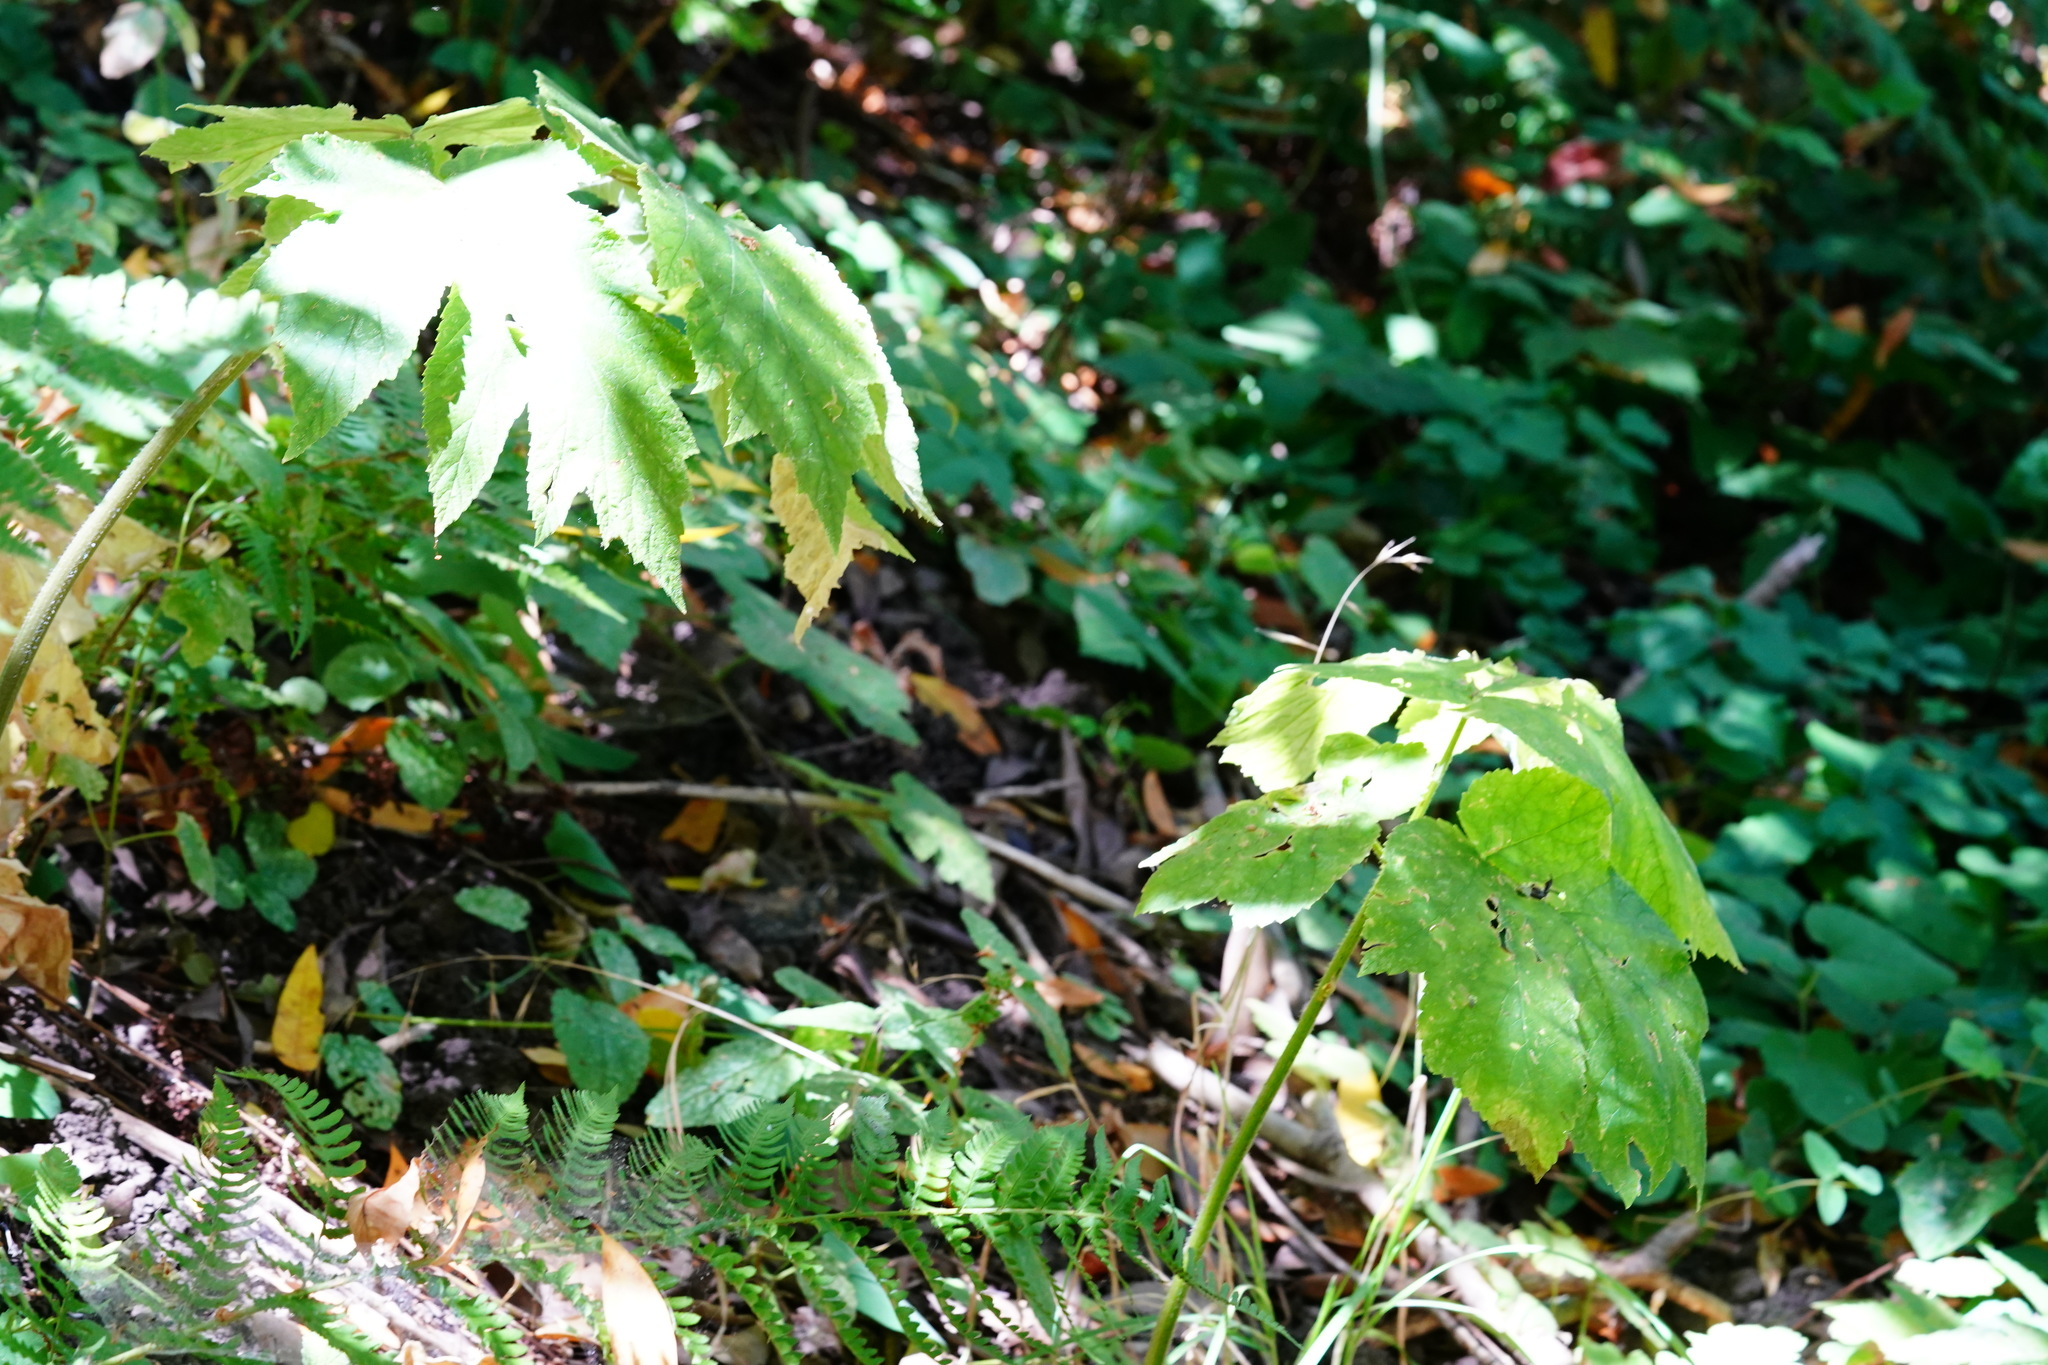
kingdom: Plantae
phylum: Tracheophyta
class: Magnoliopsida
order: Apiales
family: Apiaceae
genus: Heracleum
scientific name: Heracleum maximum
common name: American cow parsnip
